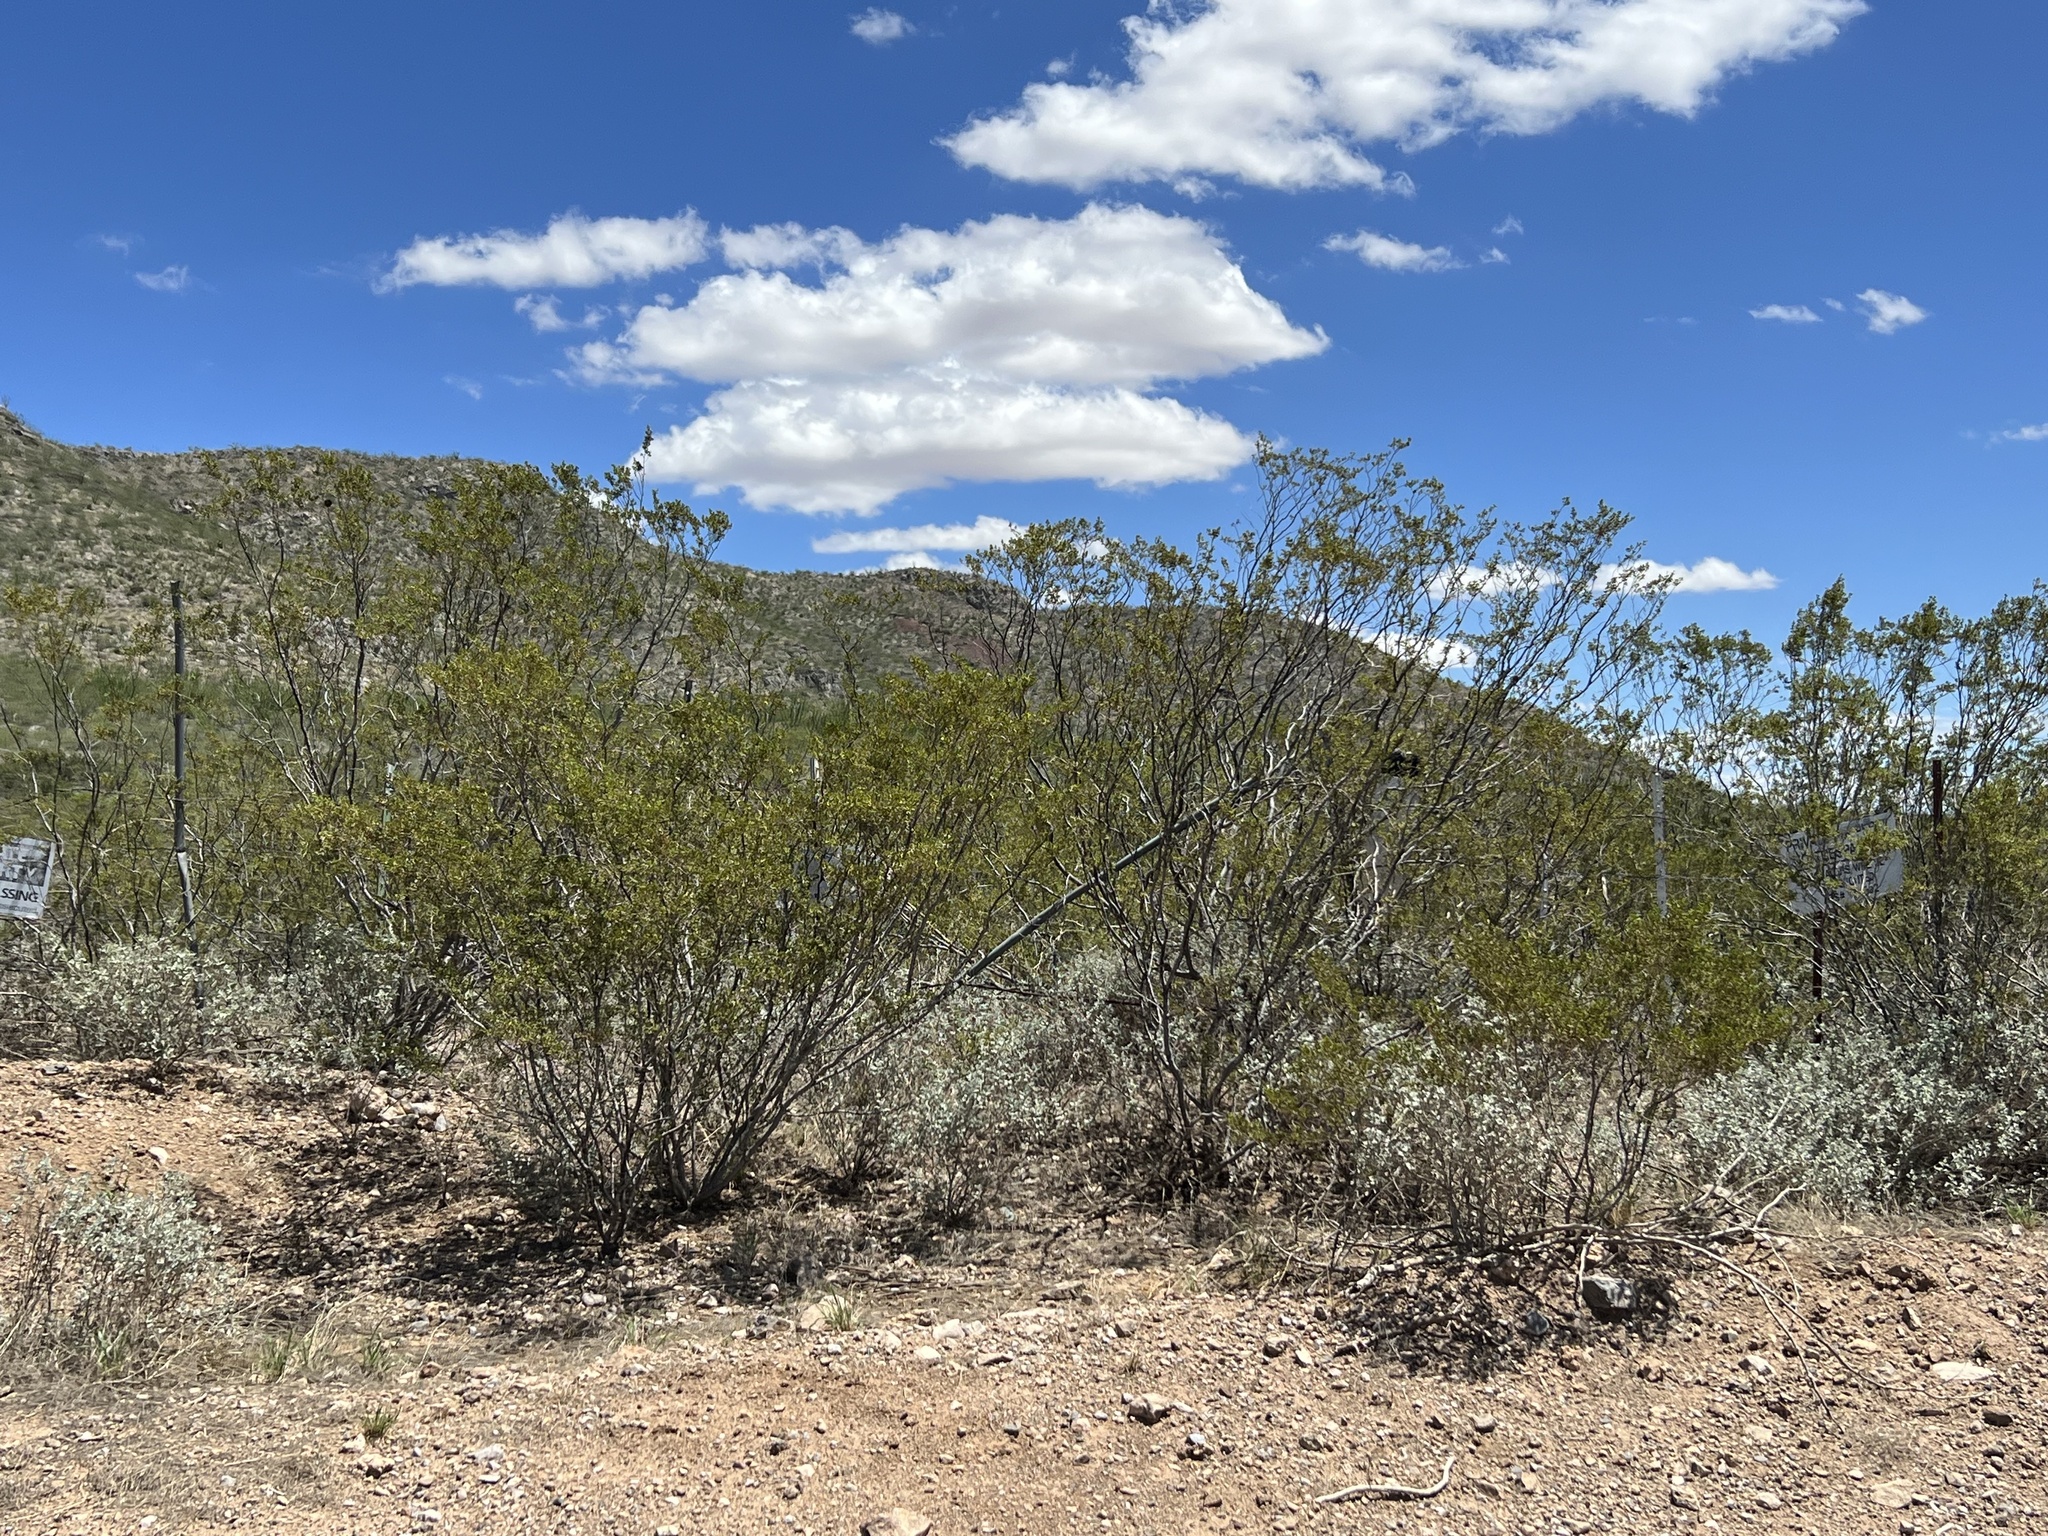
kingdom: Plantae
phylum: Tracheophyta
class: Magnoliopsida
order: Zygophyllales
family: Zygophyllaceae
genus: Larrea
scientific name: Larrea tridentata
